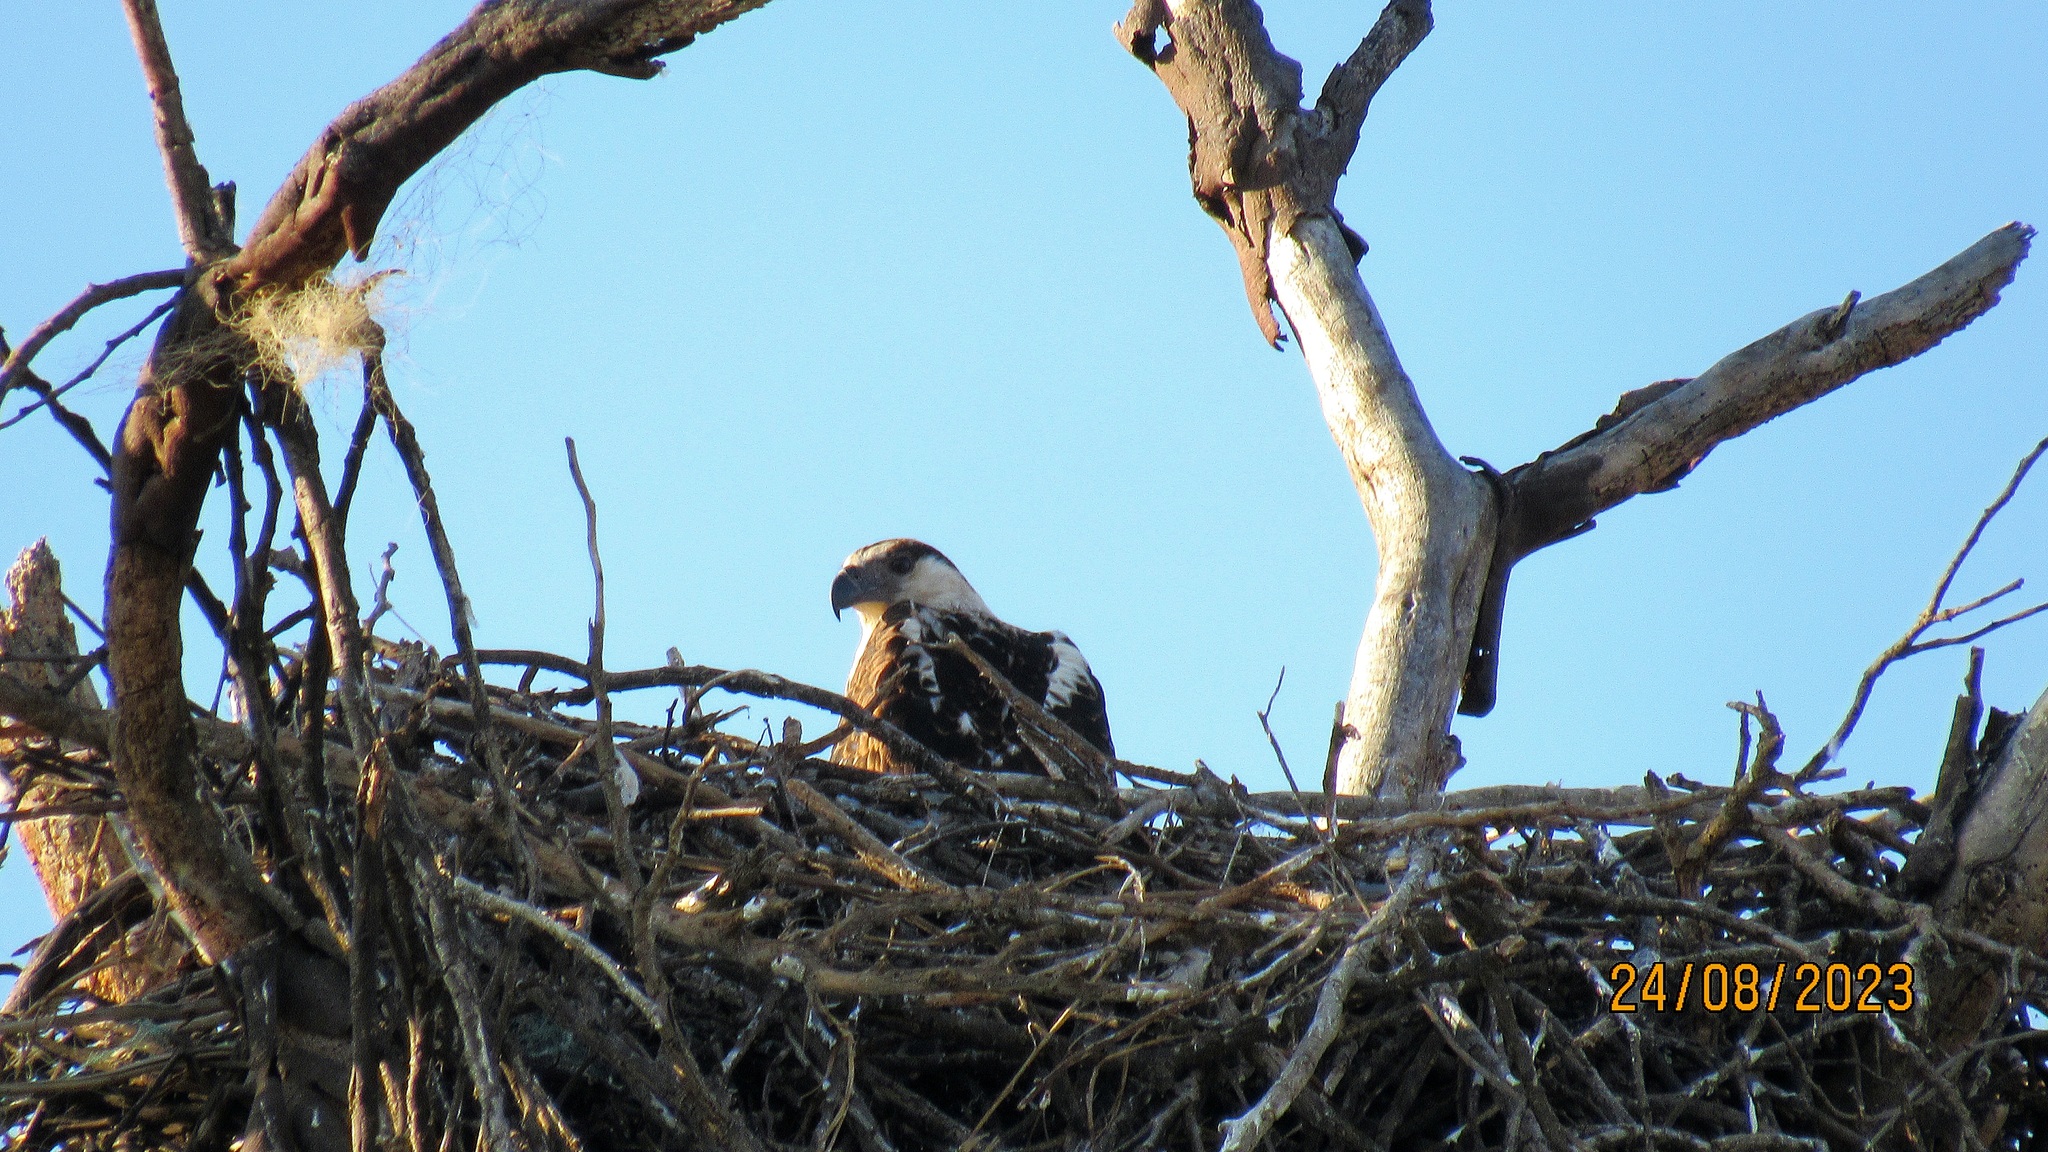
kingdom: Animalia
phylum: Chordata
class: Aves
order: Accipitriformes
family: Accipitridae
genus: Haliaeetus
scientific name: Haliaeetus vocifer
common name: African fish eagle
